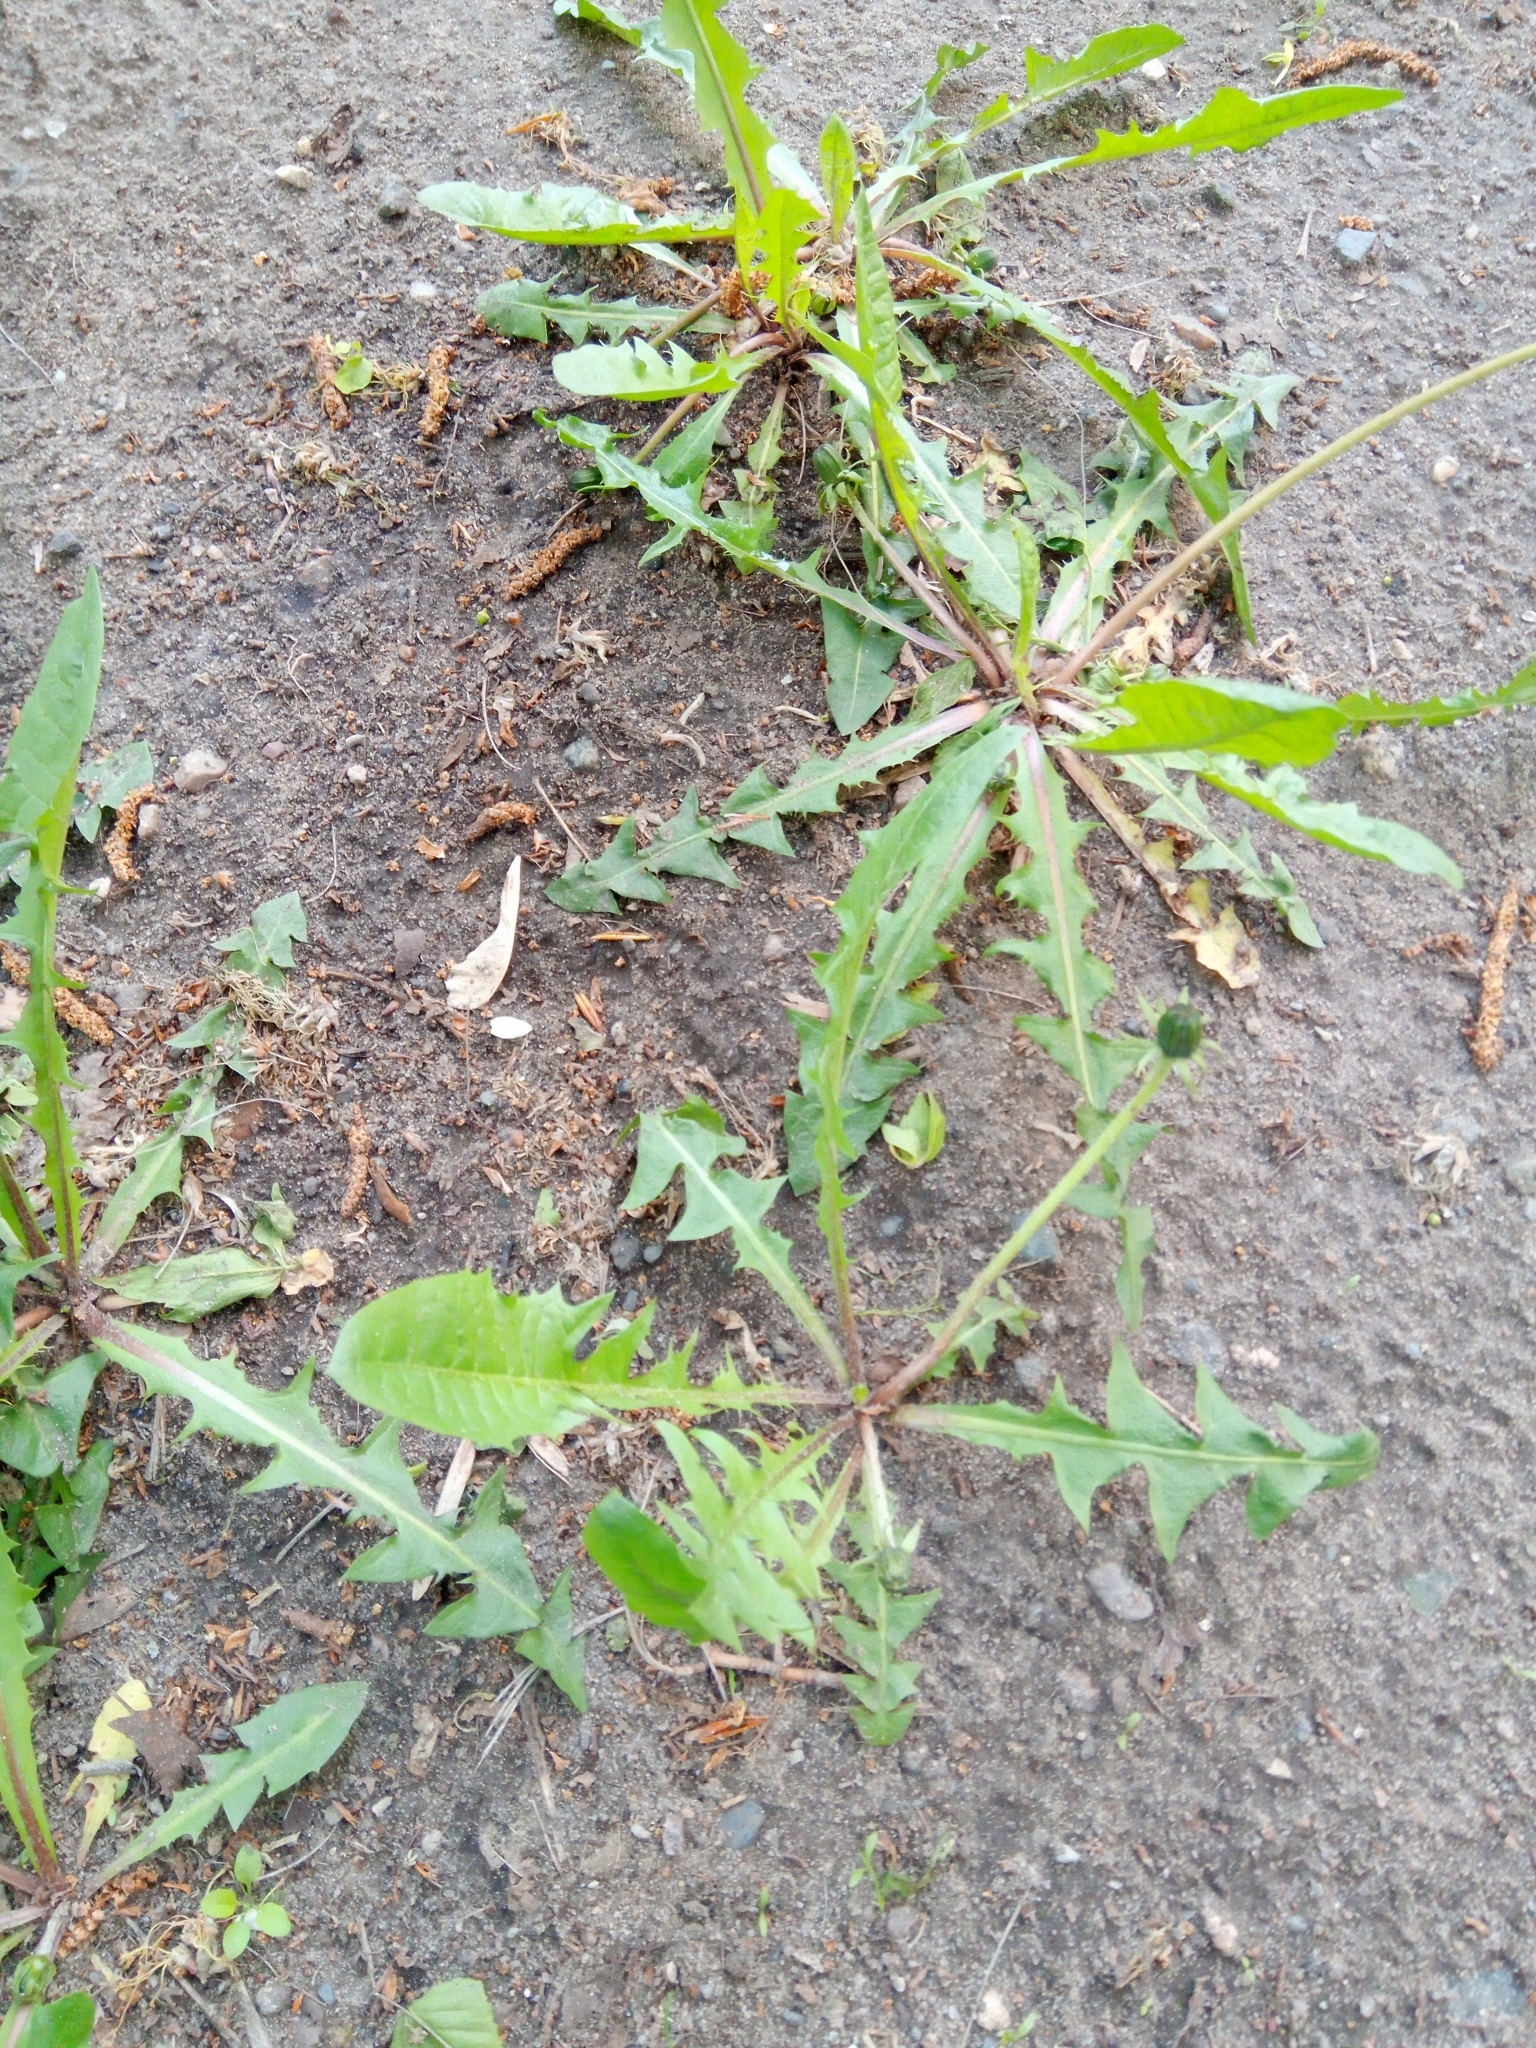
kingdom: Plantae
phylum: Tracheophyta
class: Magnoliopsida
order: Asterales
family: Asteraceae
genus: Taraxacum
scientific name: Taraxacum officinale
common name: Common dandelion
